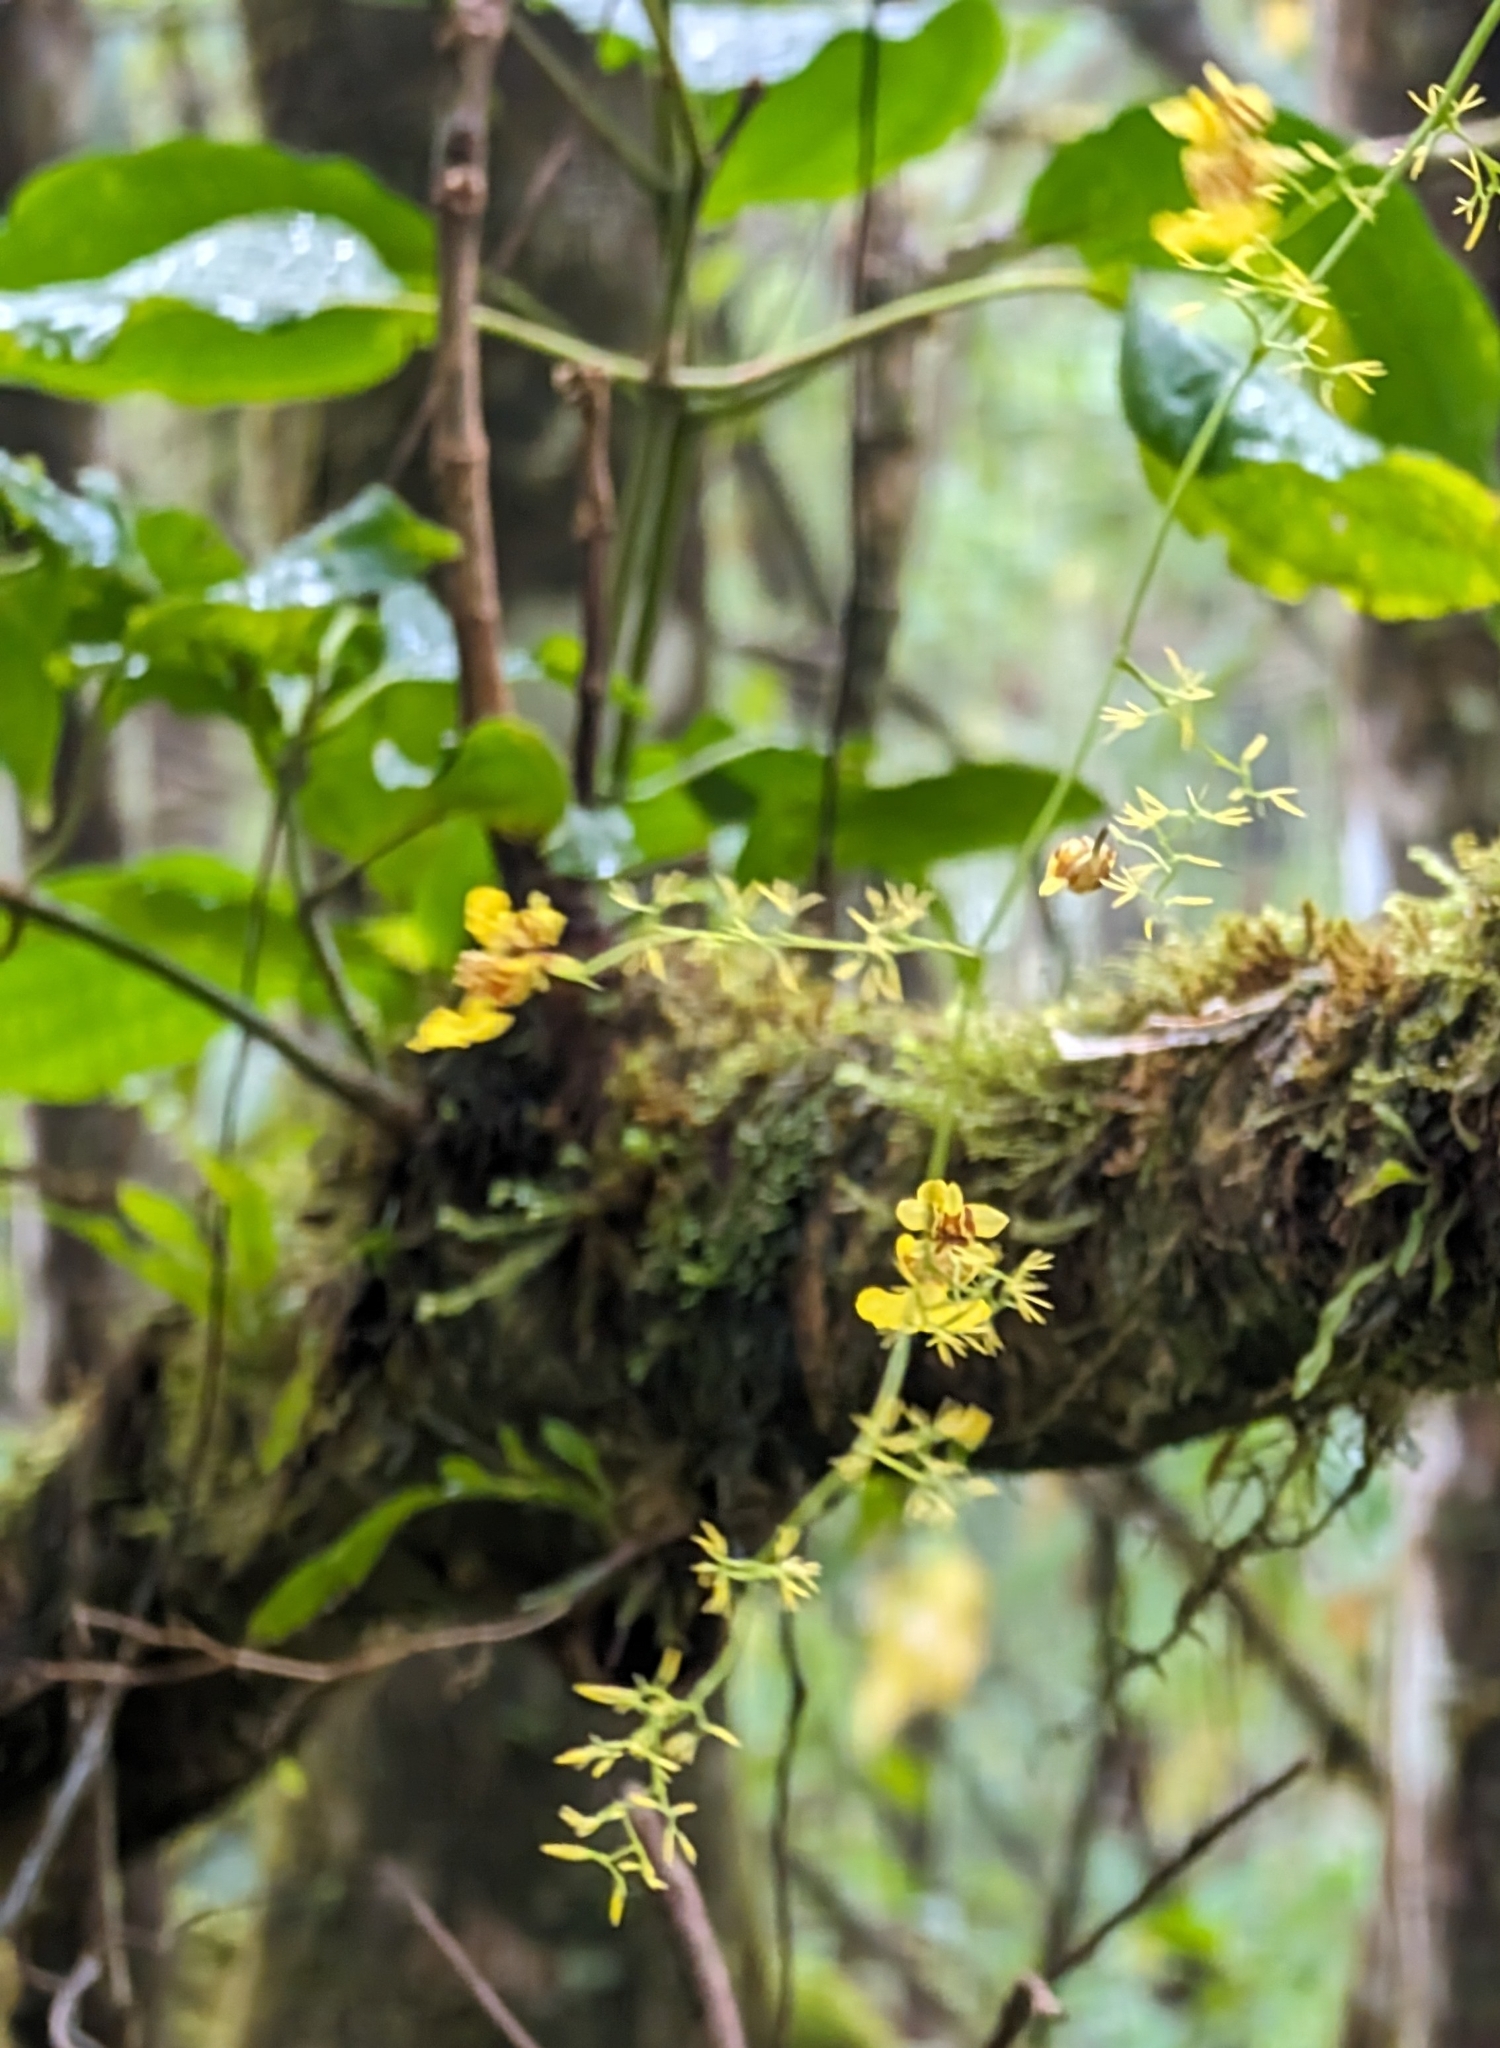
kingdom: Plantae
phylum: Tracheophyta
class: Liliopsida
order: Asparagales
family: Orchidaceae
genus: Oncidium
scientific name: Oncidium bryolophotum
